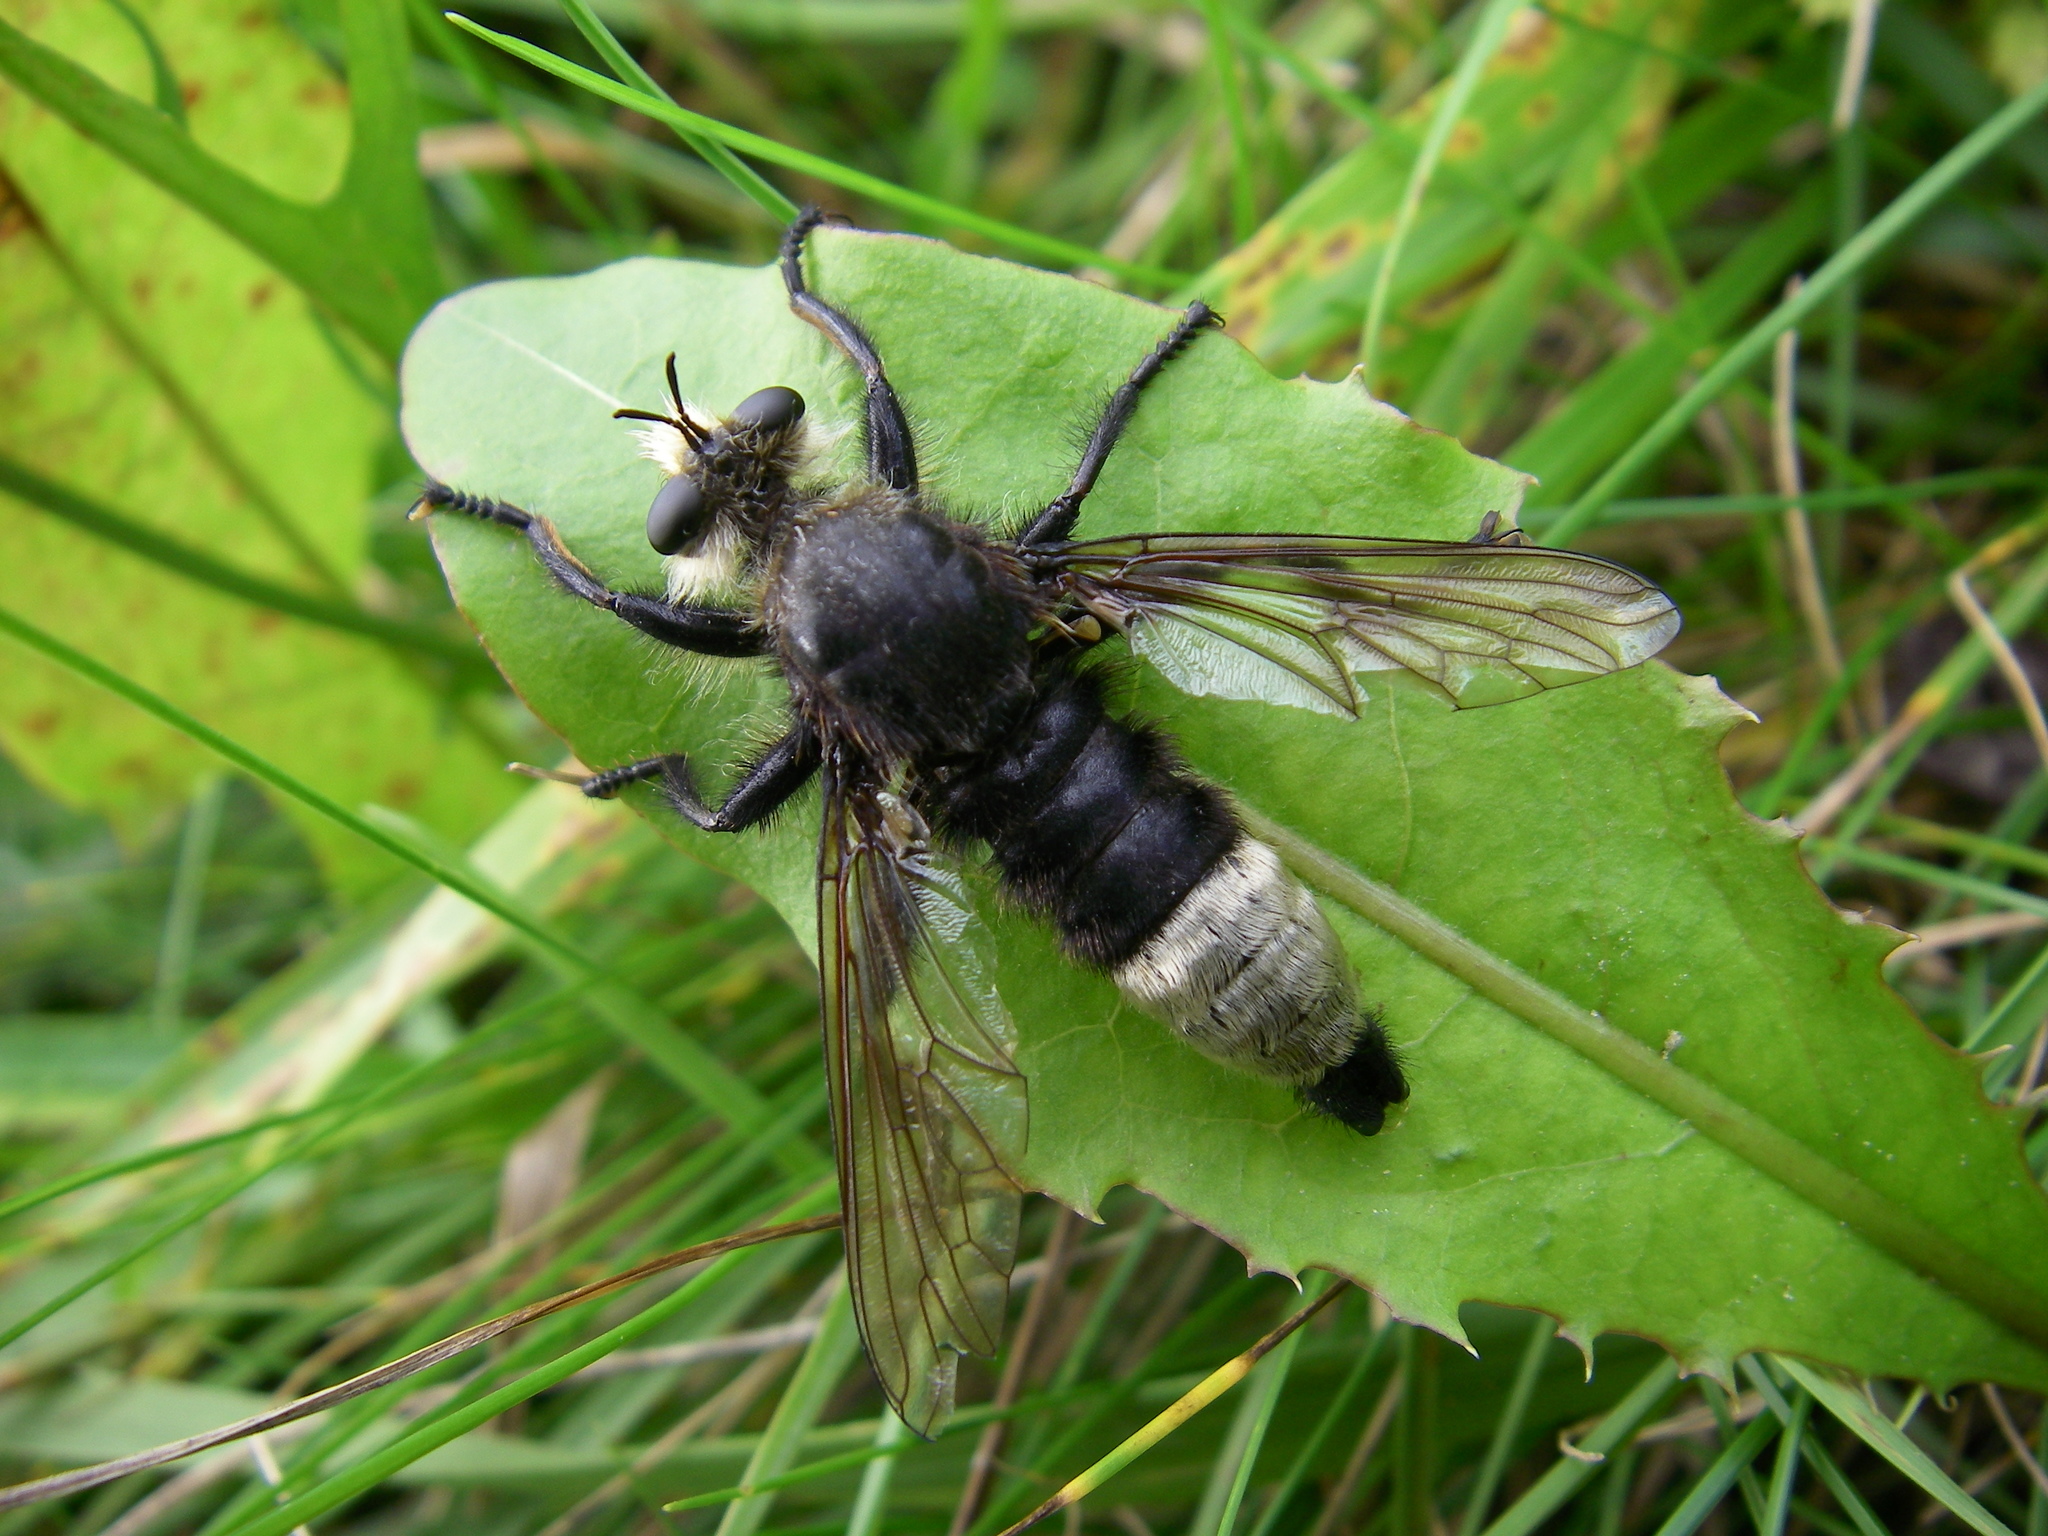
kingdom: Animalia
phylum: Arthropoda
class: Insecta
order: Diptera
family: Asilidae
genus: Laphria
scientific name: Laphria gibbosa
